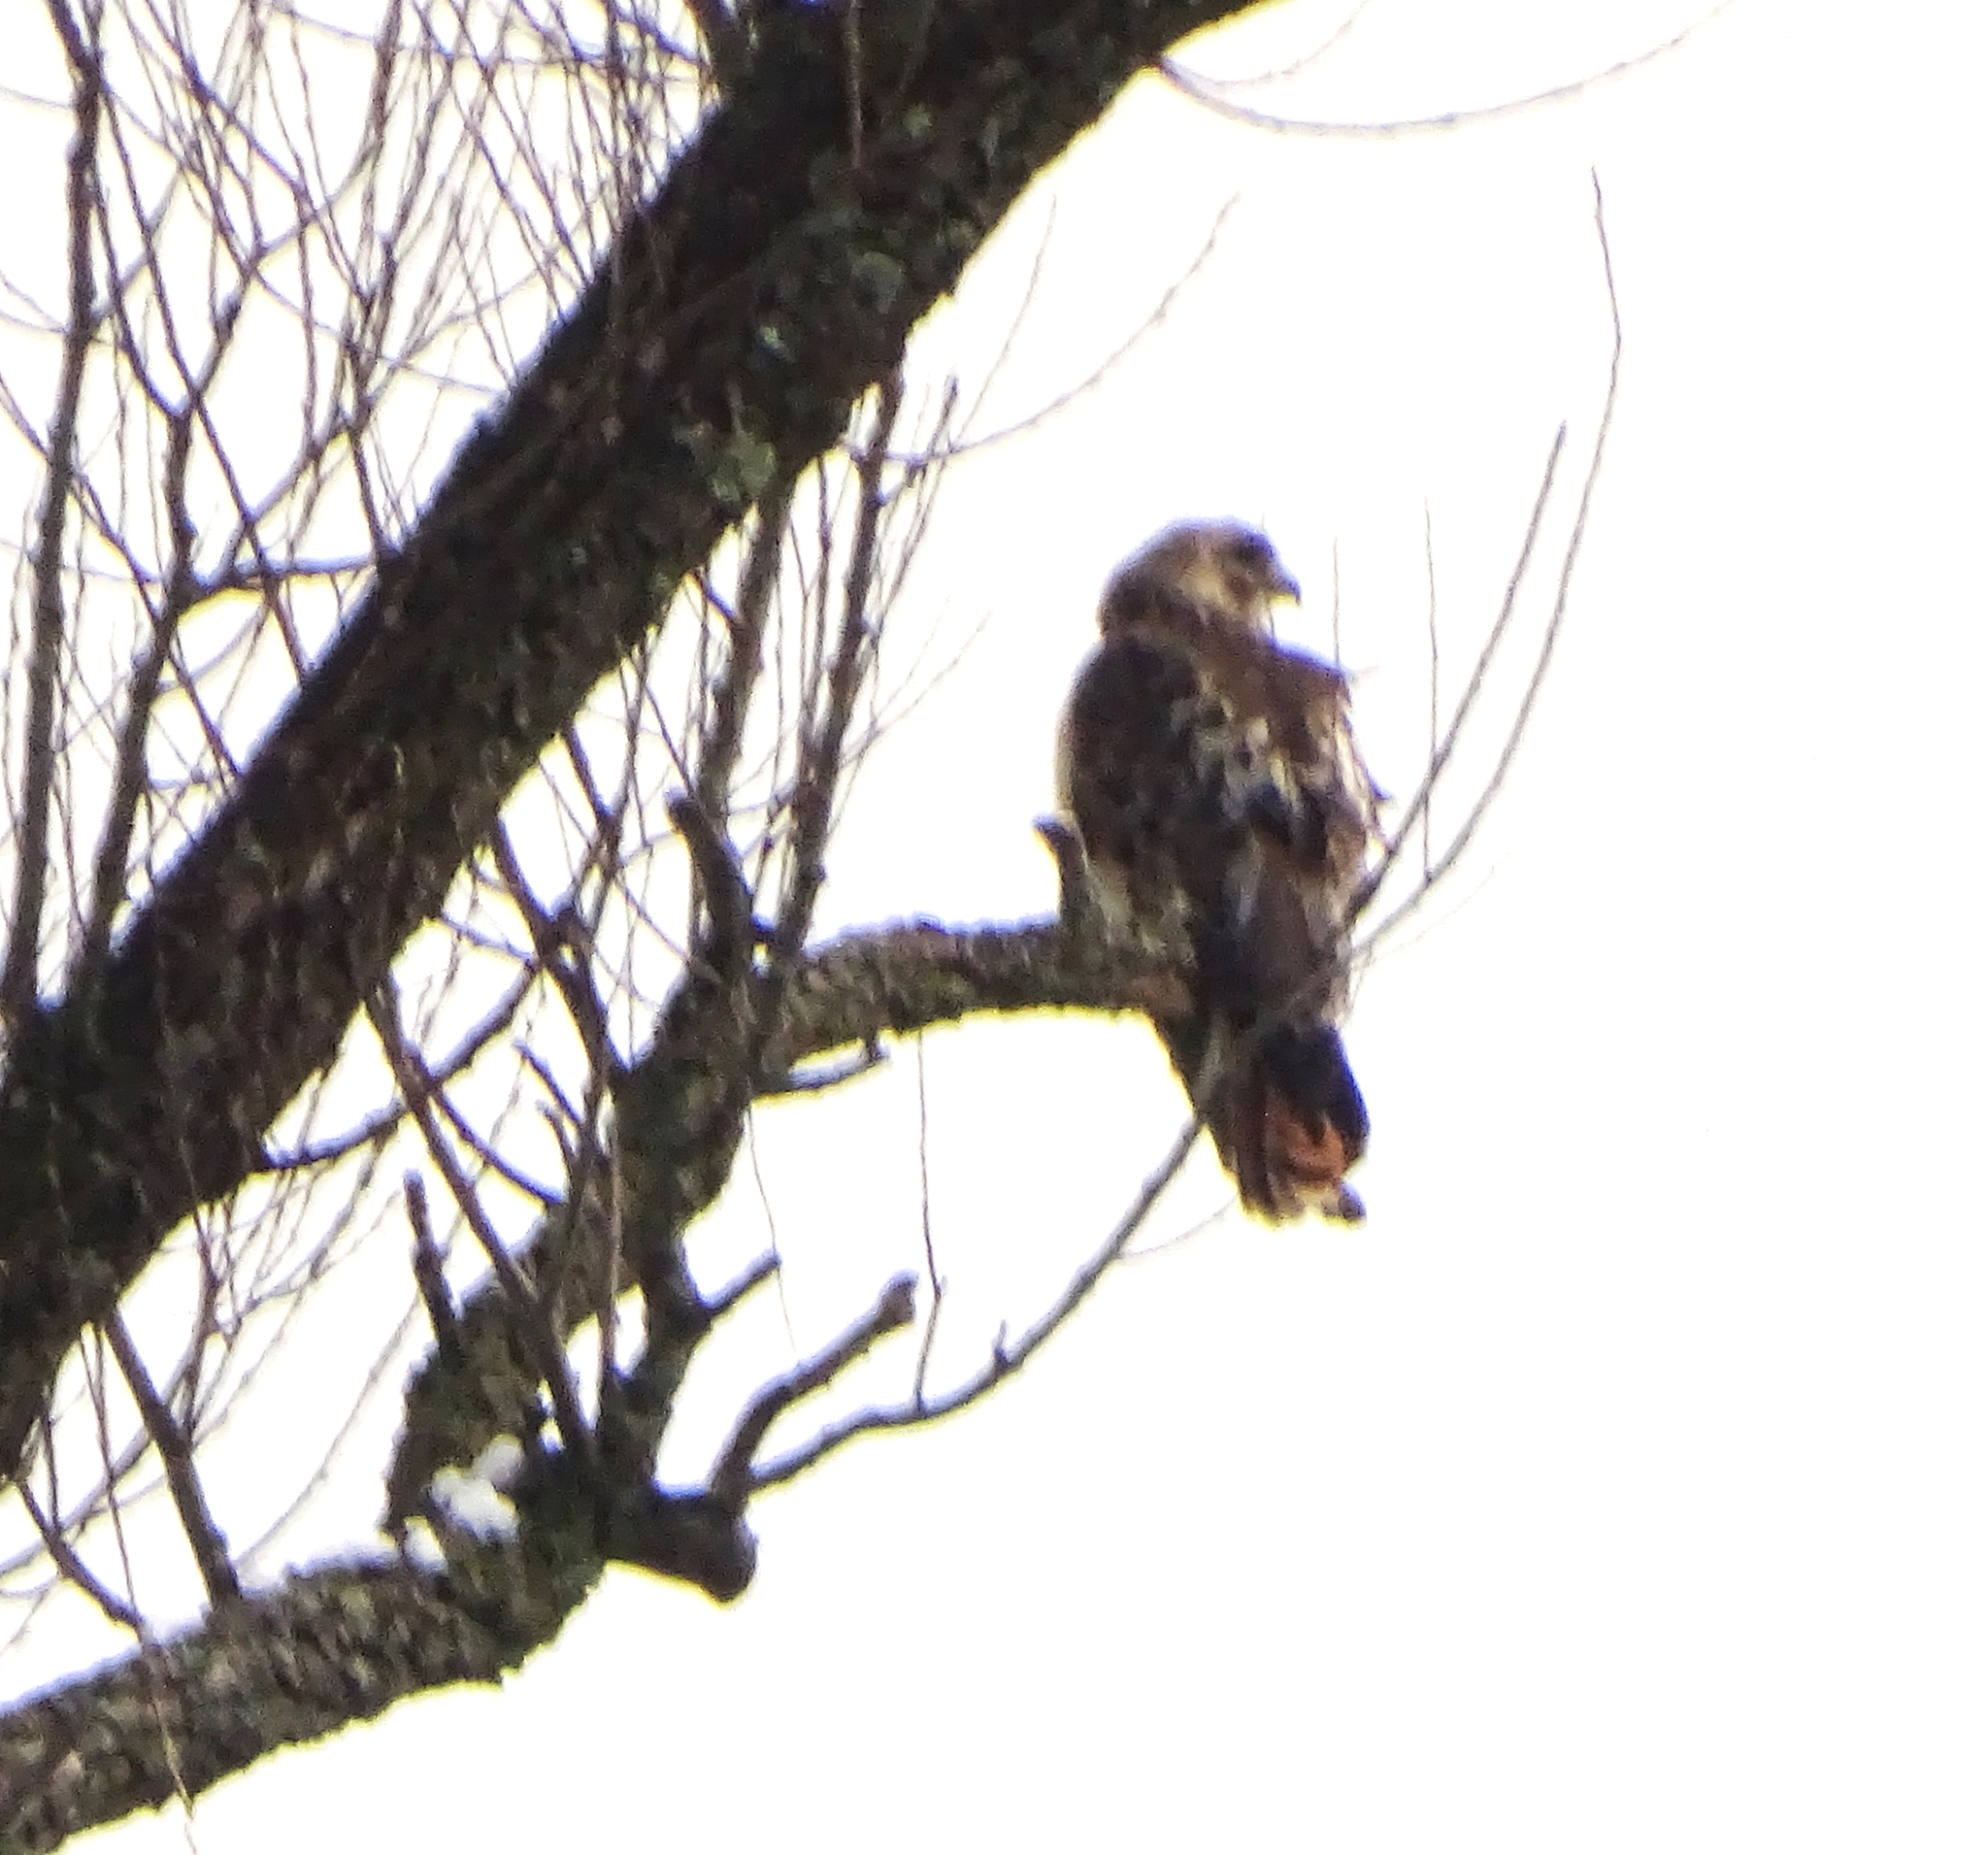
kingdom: Animalia
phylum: Chordata
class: Aves
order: Accipitriformes
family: Accipitridae
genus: Buteo
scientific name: Buteo jamaicensis
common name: Red-tailed hawk
